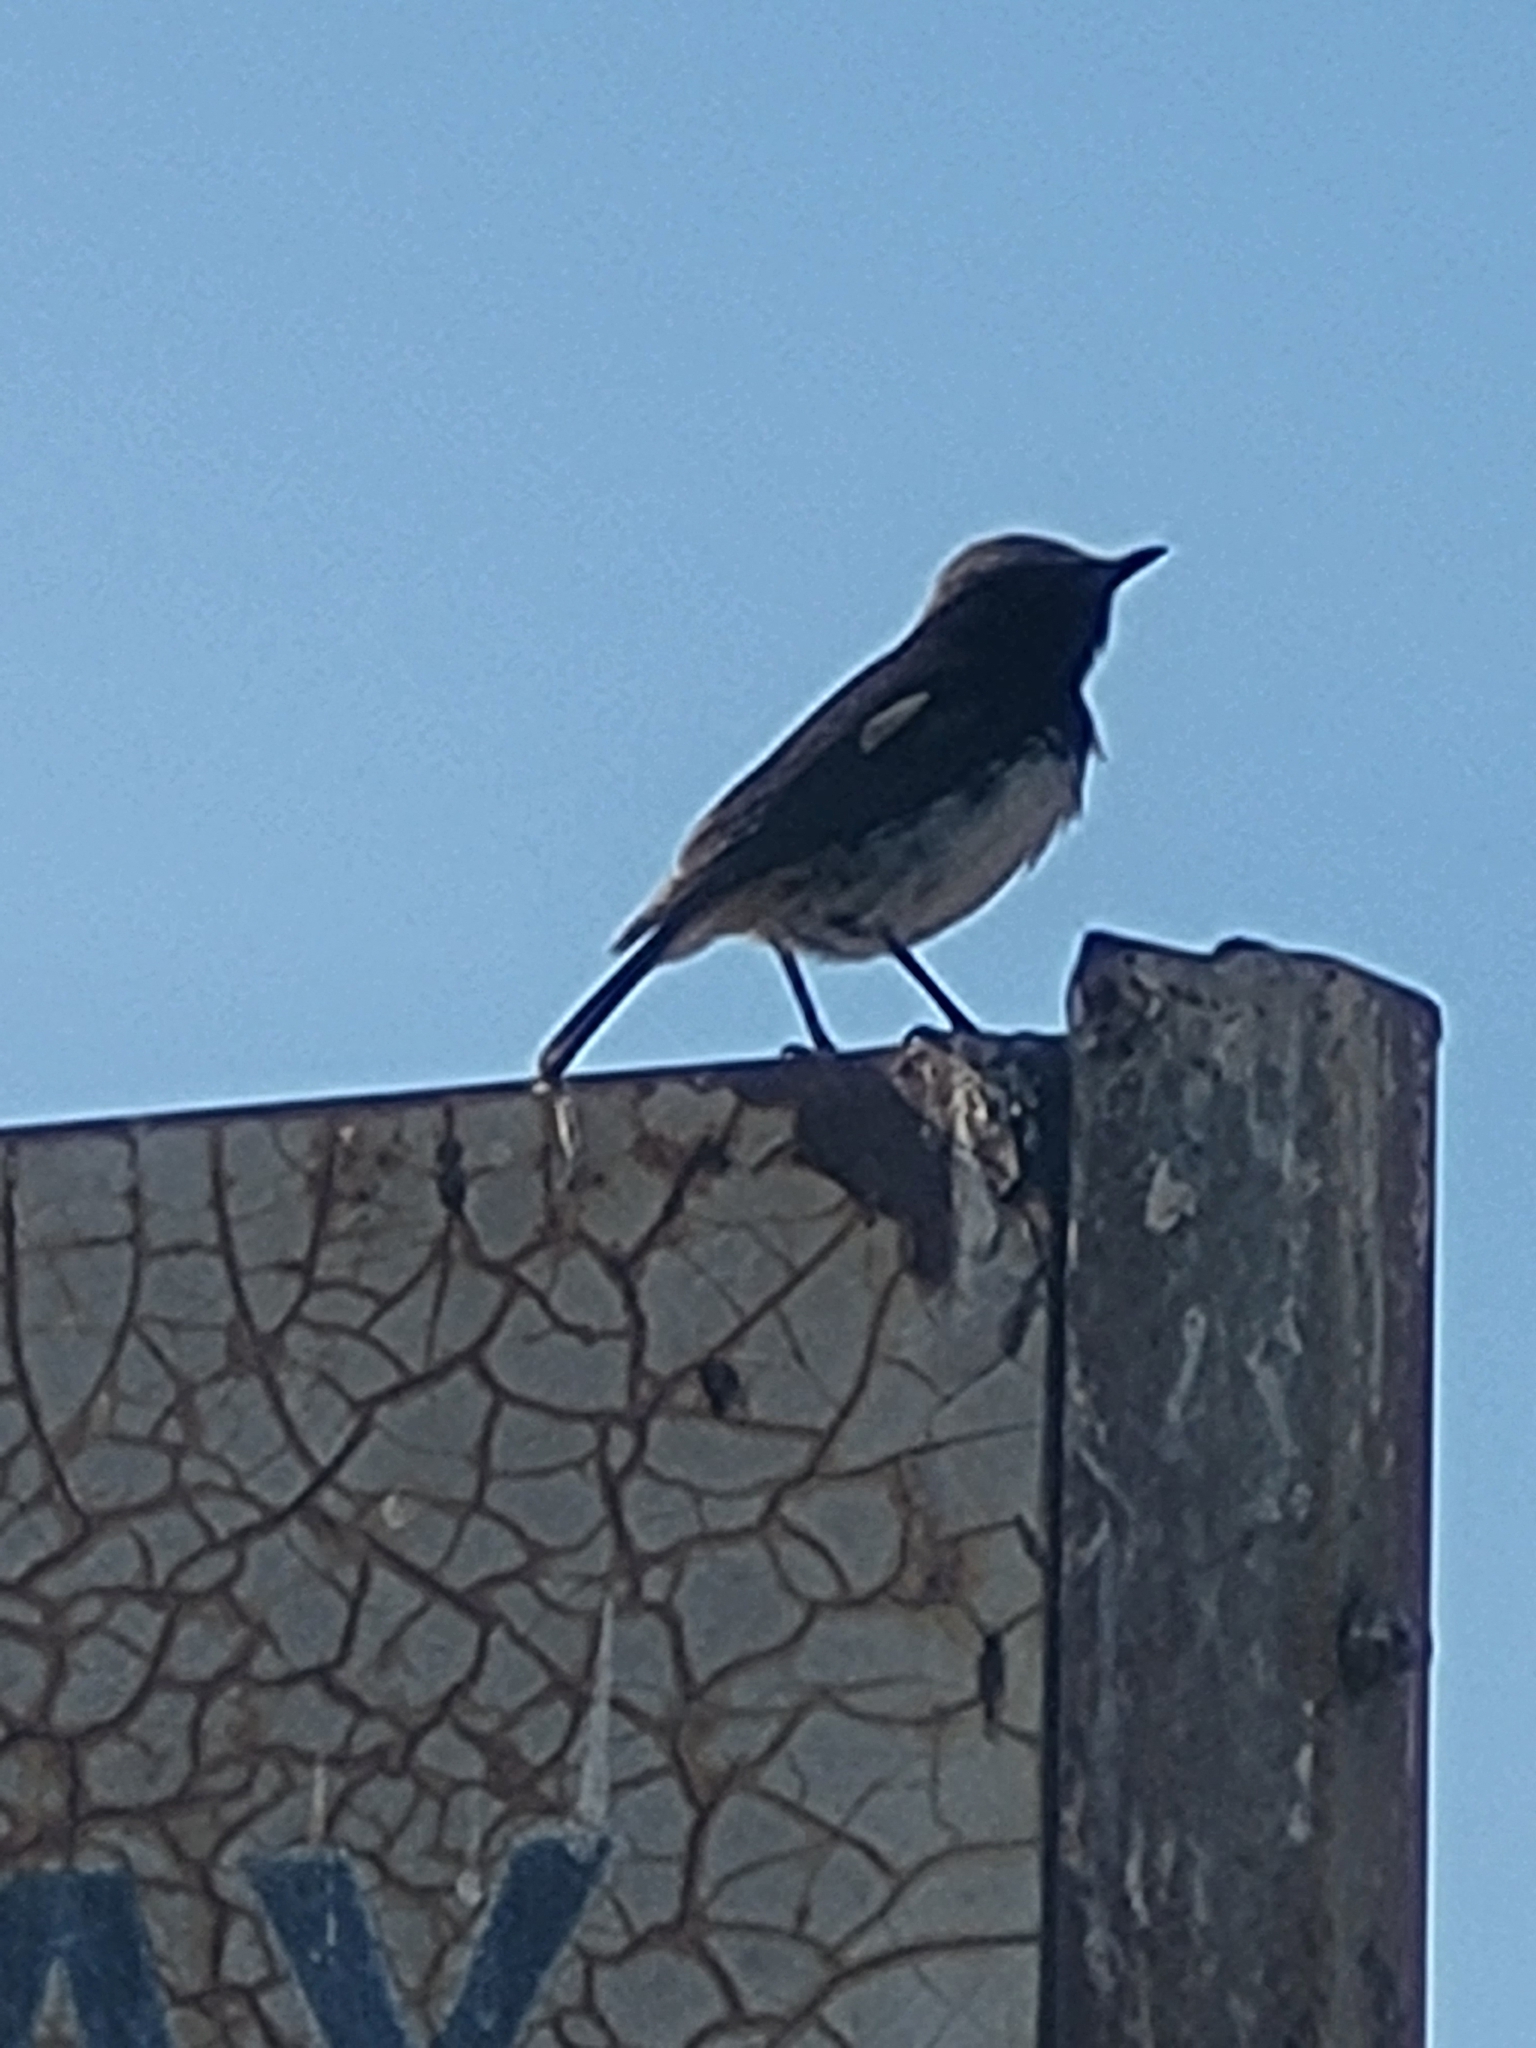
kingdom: Animalia
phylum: Chordata
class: Aves
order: Passeriformes
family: Muscicapidae
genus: Oenanthe
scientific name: Oenanthe lugubris
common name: Abyssinian wheatear
